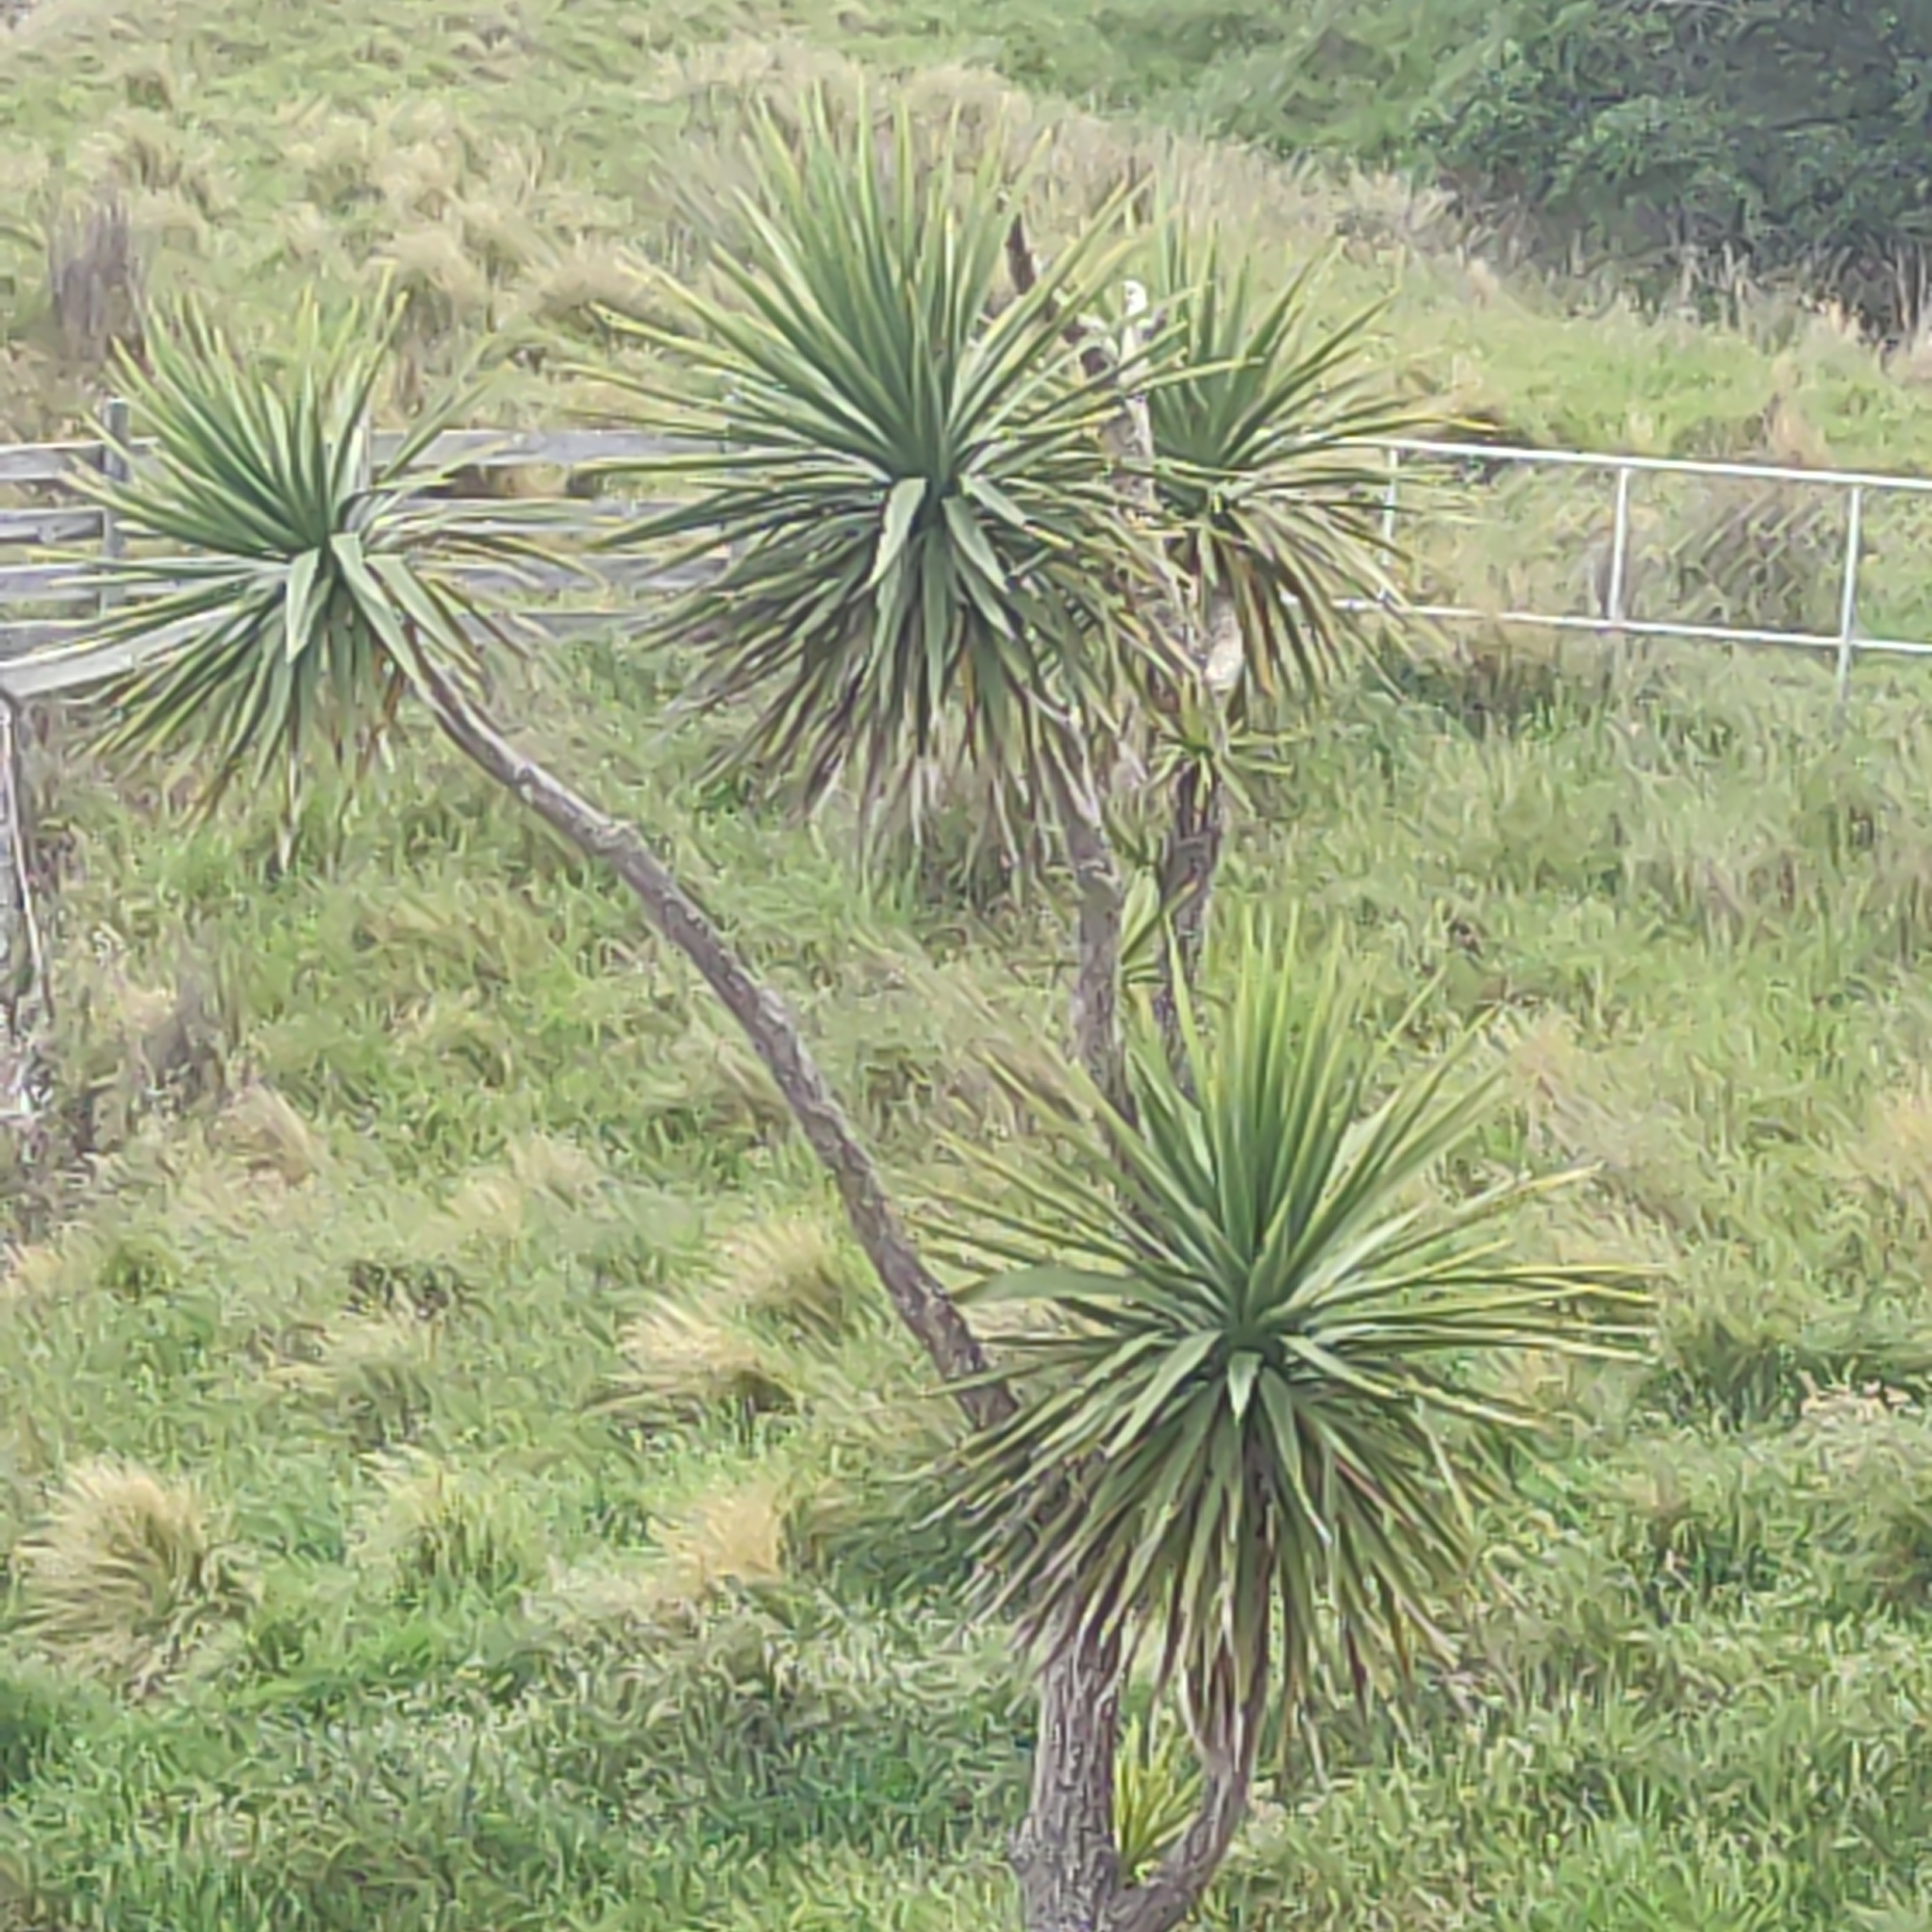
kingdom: Plantae
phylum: Tracheophyta
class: Liliopsida
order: Asparagales
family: Asparagaceae
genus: Cordyline
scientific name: Cordyline australis
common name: Cabbage-palm
